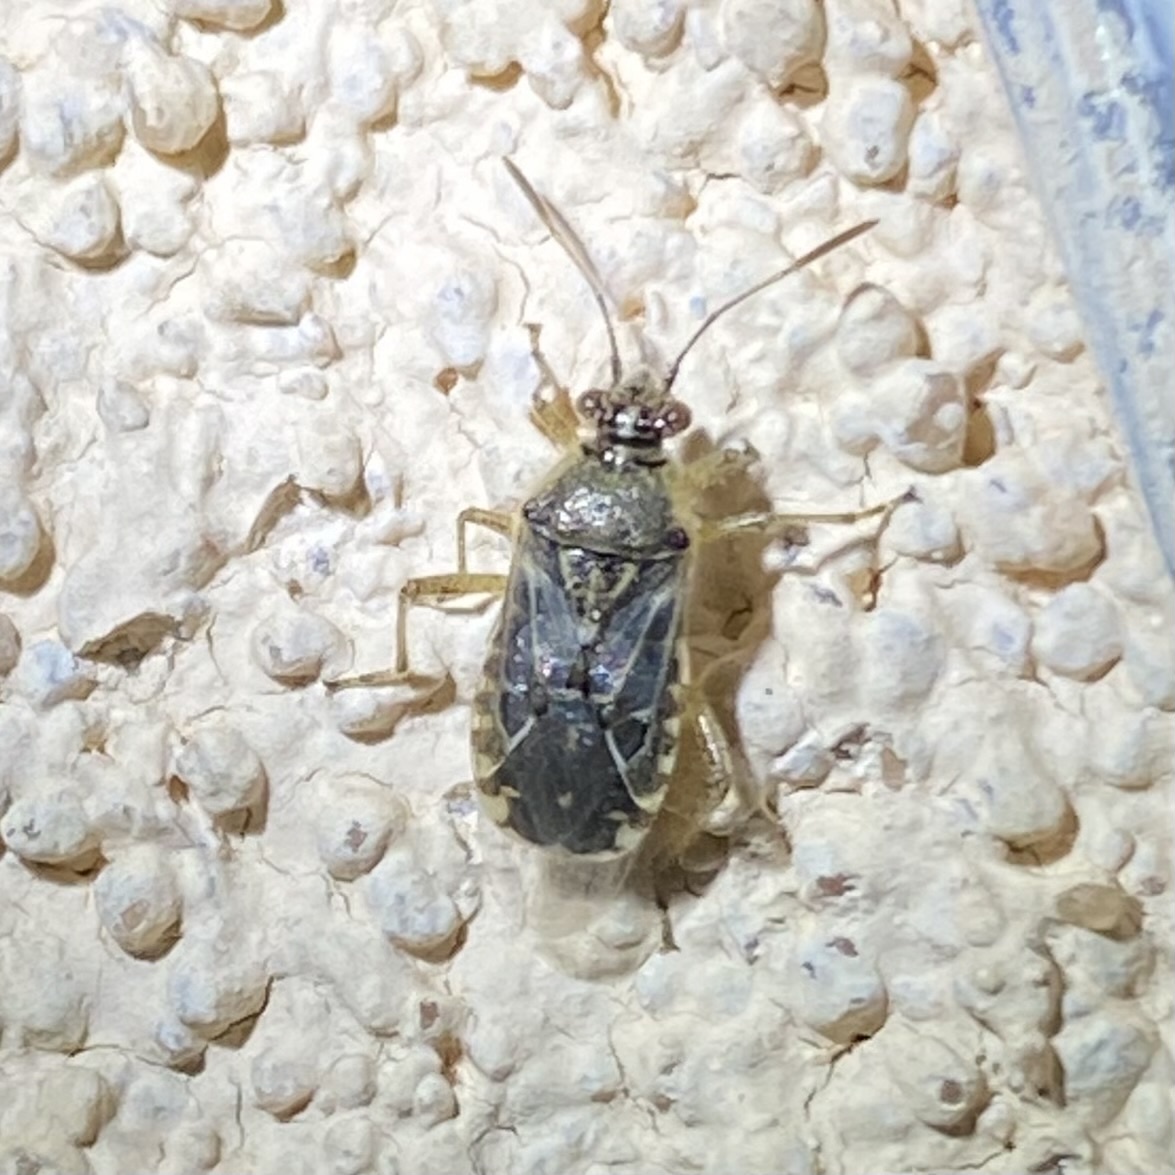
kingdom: Animalia
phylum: Arthropoda
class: Insecta
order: Hemiptera
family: Rhopalidae
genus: Liorhyssus
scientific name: Liorhyssus hyalinus
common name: Scentless plant bug
